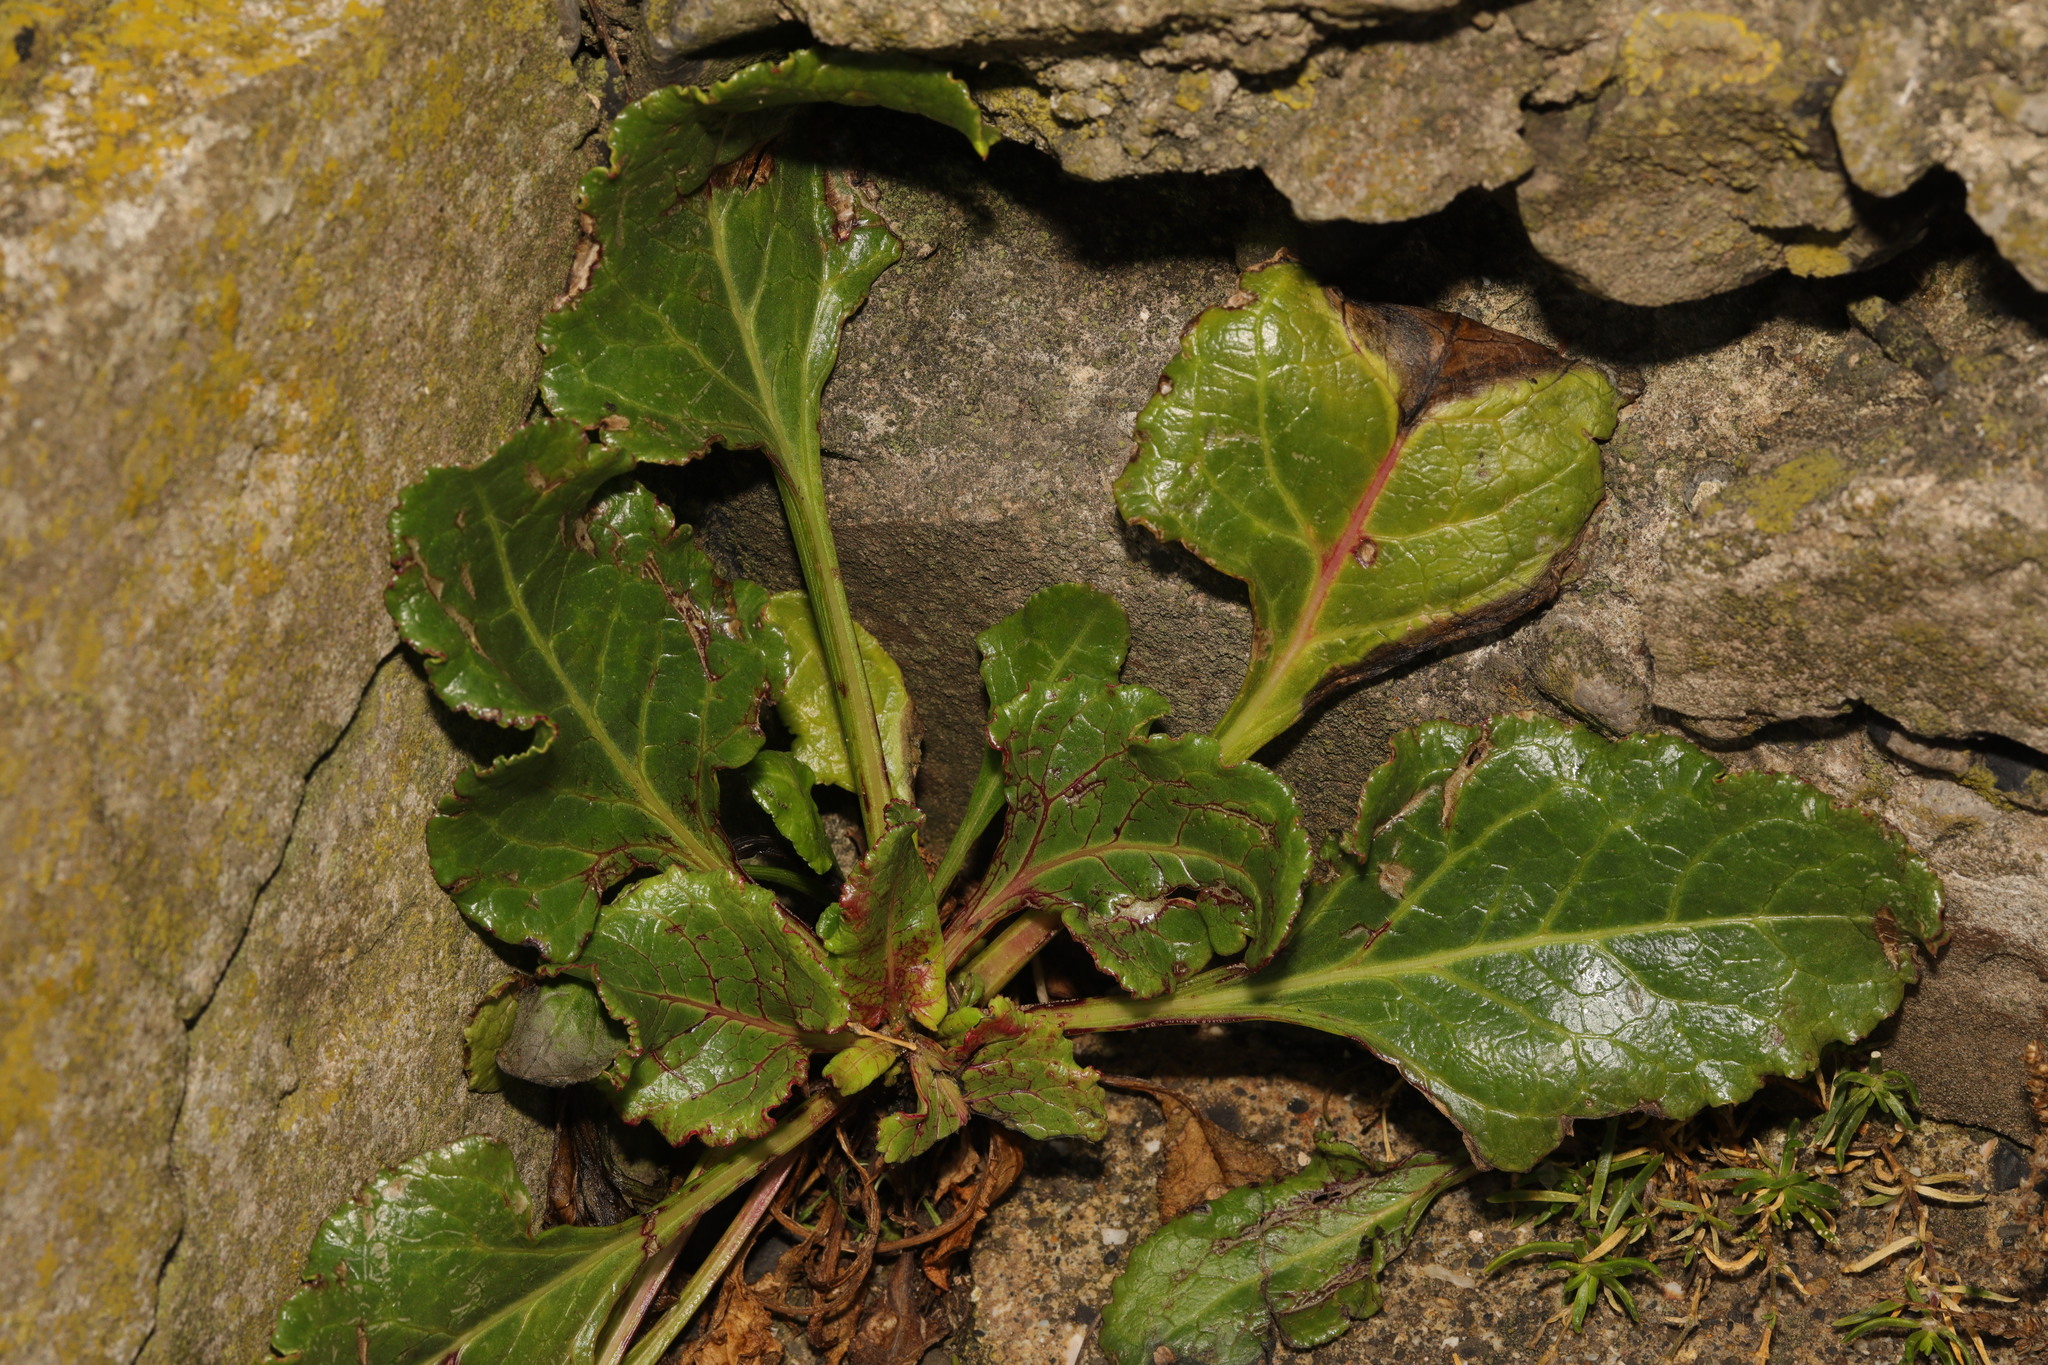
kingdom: Plantae
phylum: Tracheophyta
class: Magnoliopsida
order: Caryophyllales
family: Amaranthaceae
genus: Beta
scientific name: Beta vulgaris
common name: Beet
